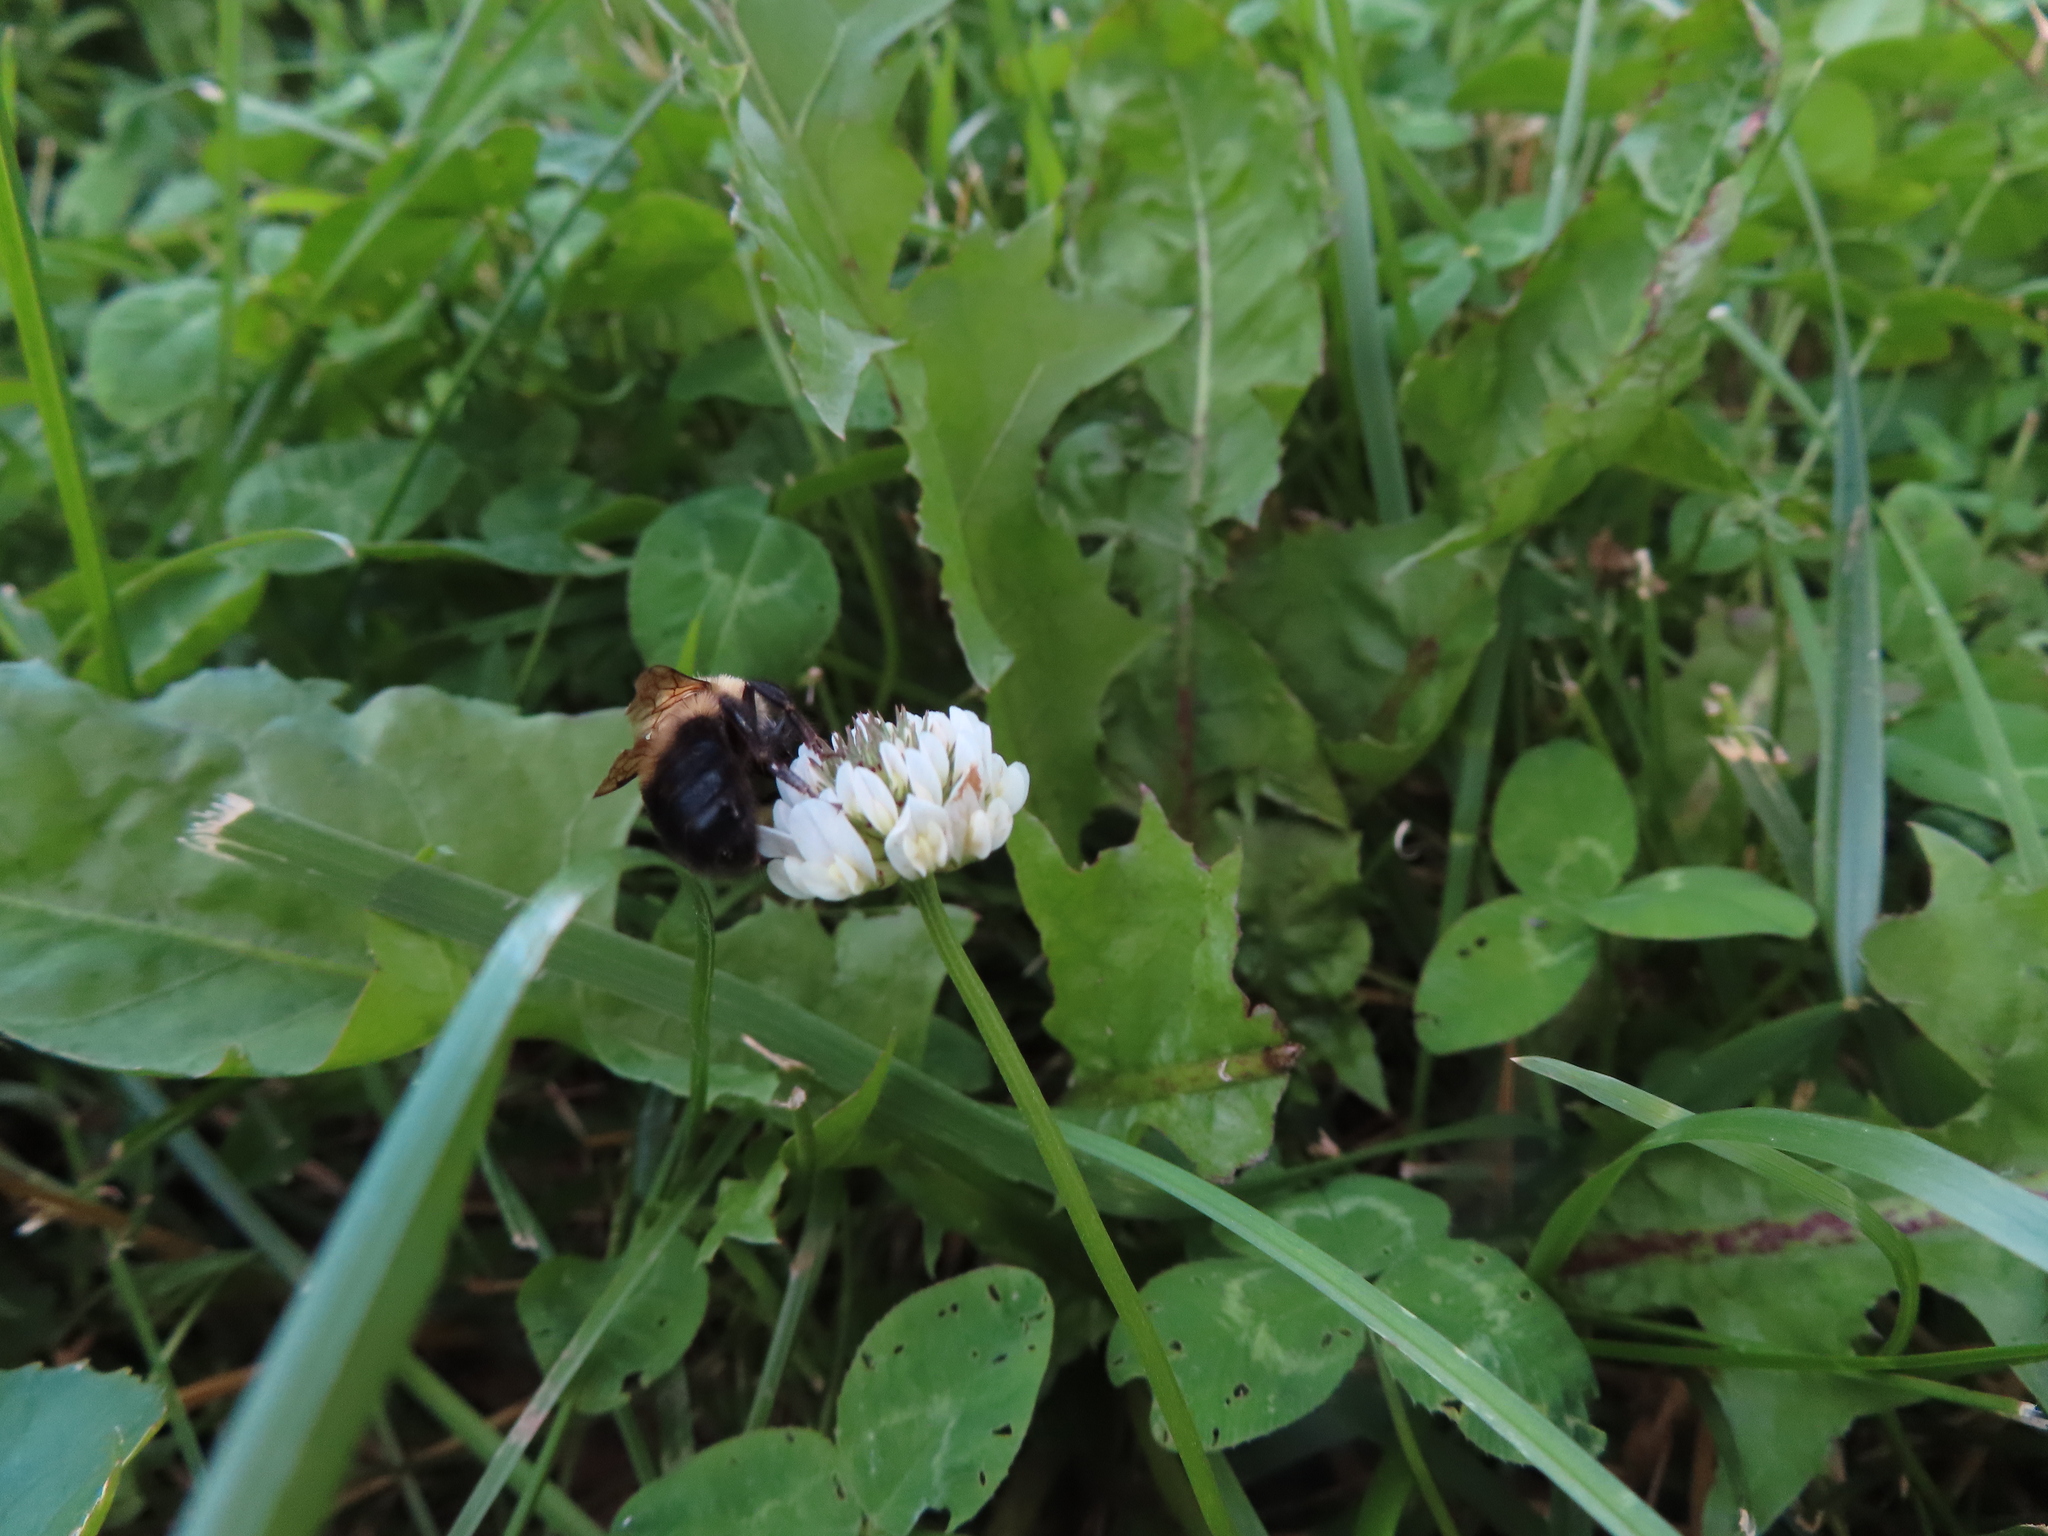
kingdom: Plantae
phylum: Tracheophyta
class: Magnoliopsida
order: Fabales
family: Fabaceae
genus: Trifolium
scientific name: Trifolium repens
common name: White clover
